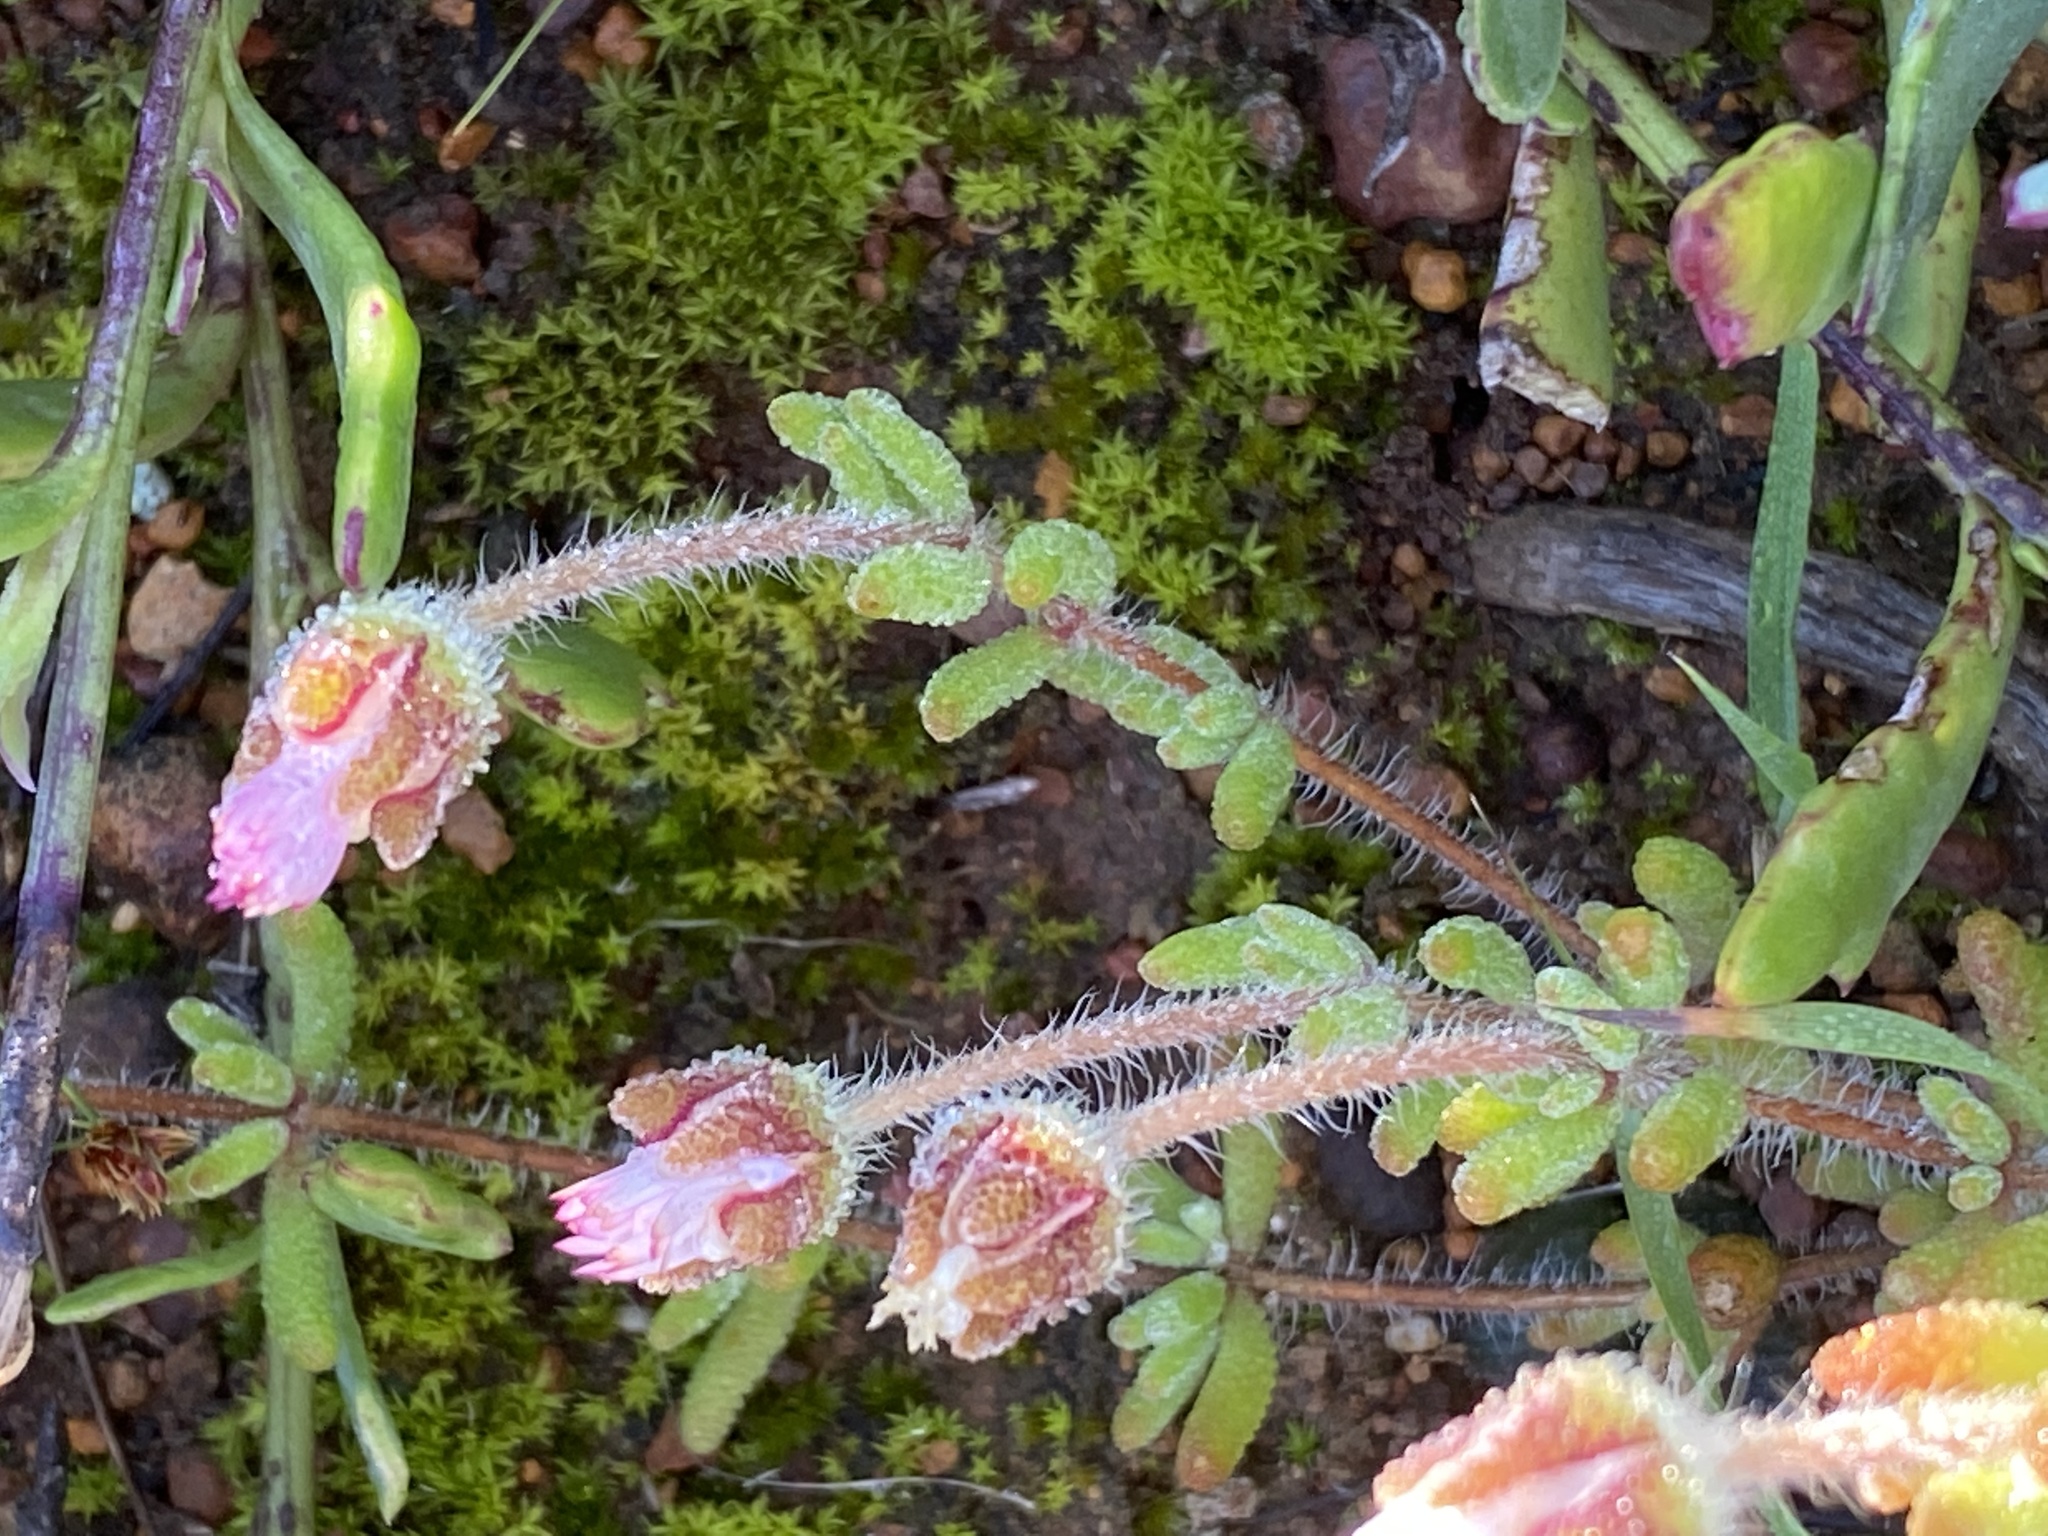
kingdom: Plantae
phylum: Tracheophyta
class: Magnoliopsida
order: Caryophyllales
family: Aizoaceae
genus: Drosanthemum
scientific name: Drosanthemum striatum
